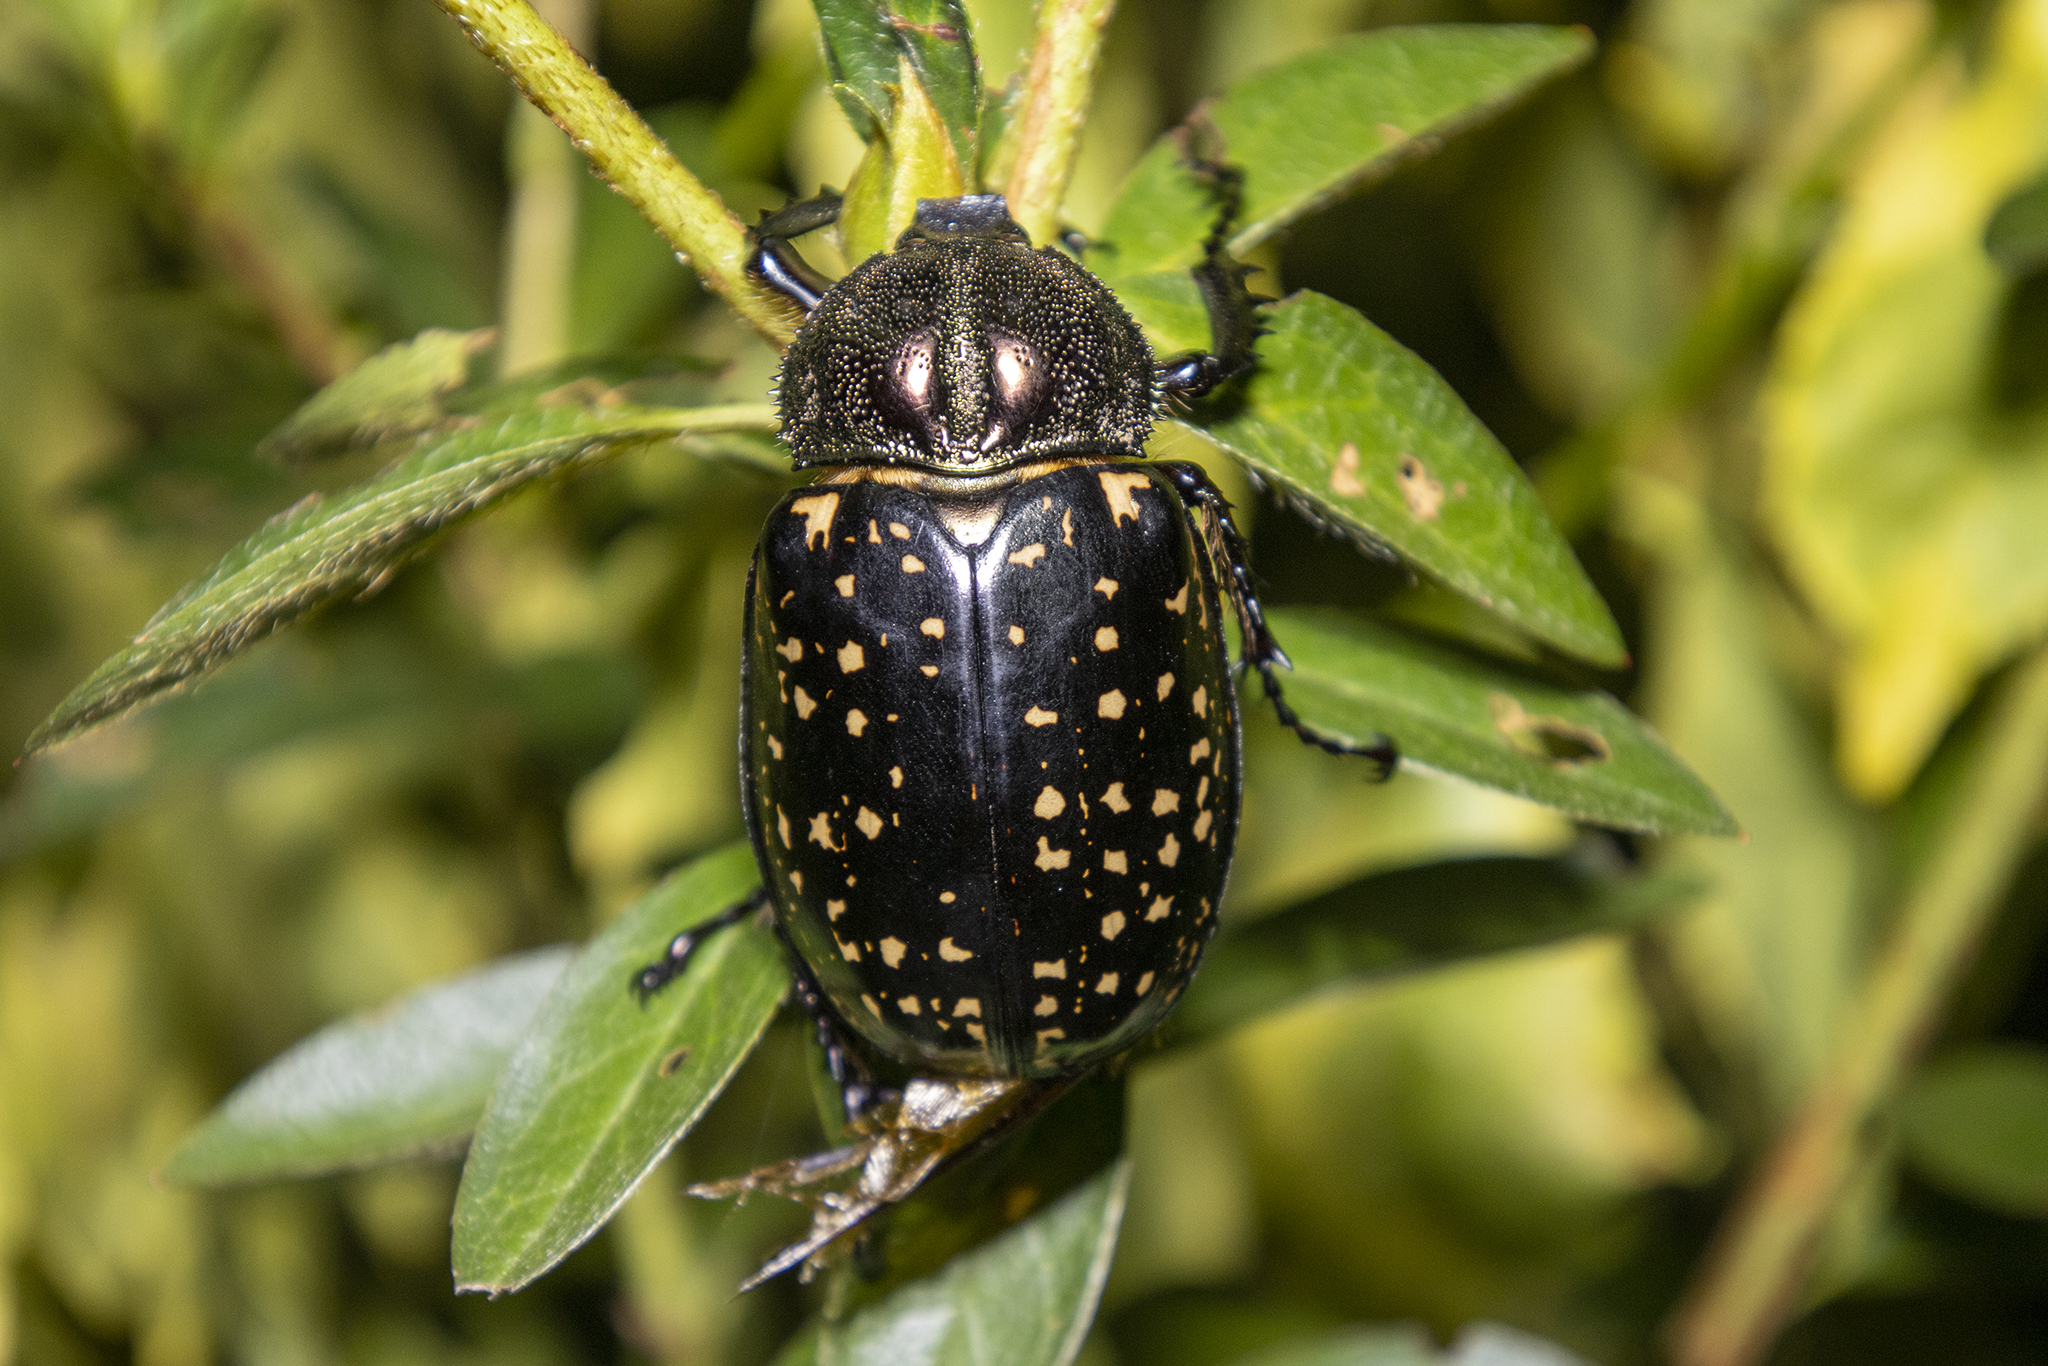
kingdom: Animalia
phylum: Arthropoda
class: Insecta
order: Coleoptera
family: Scarabaeidae
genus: Cheirotonus
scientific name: Cheirotonus macleayi
